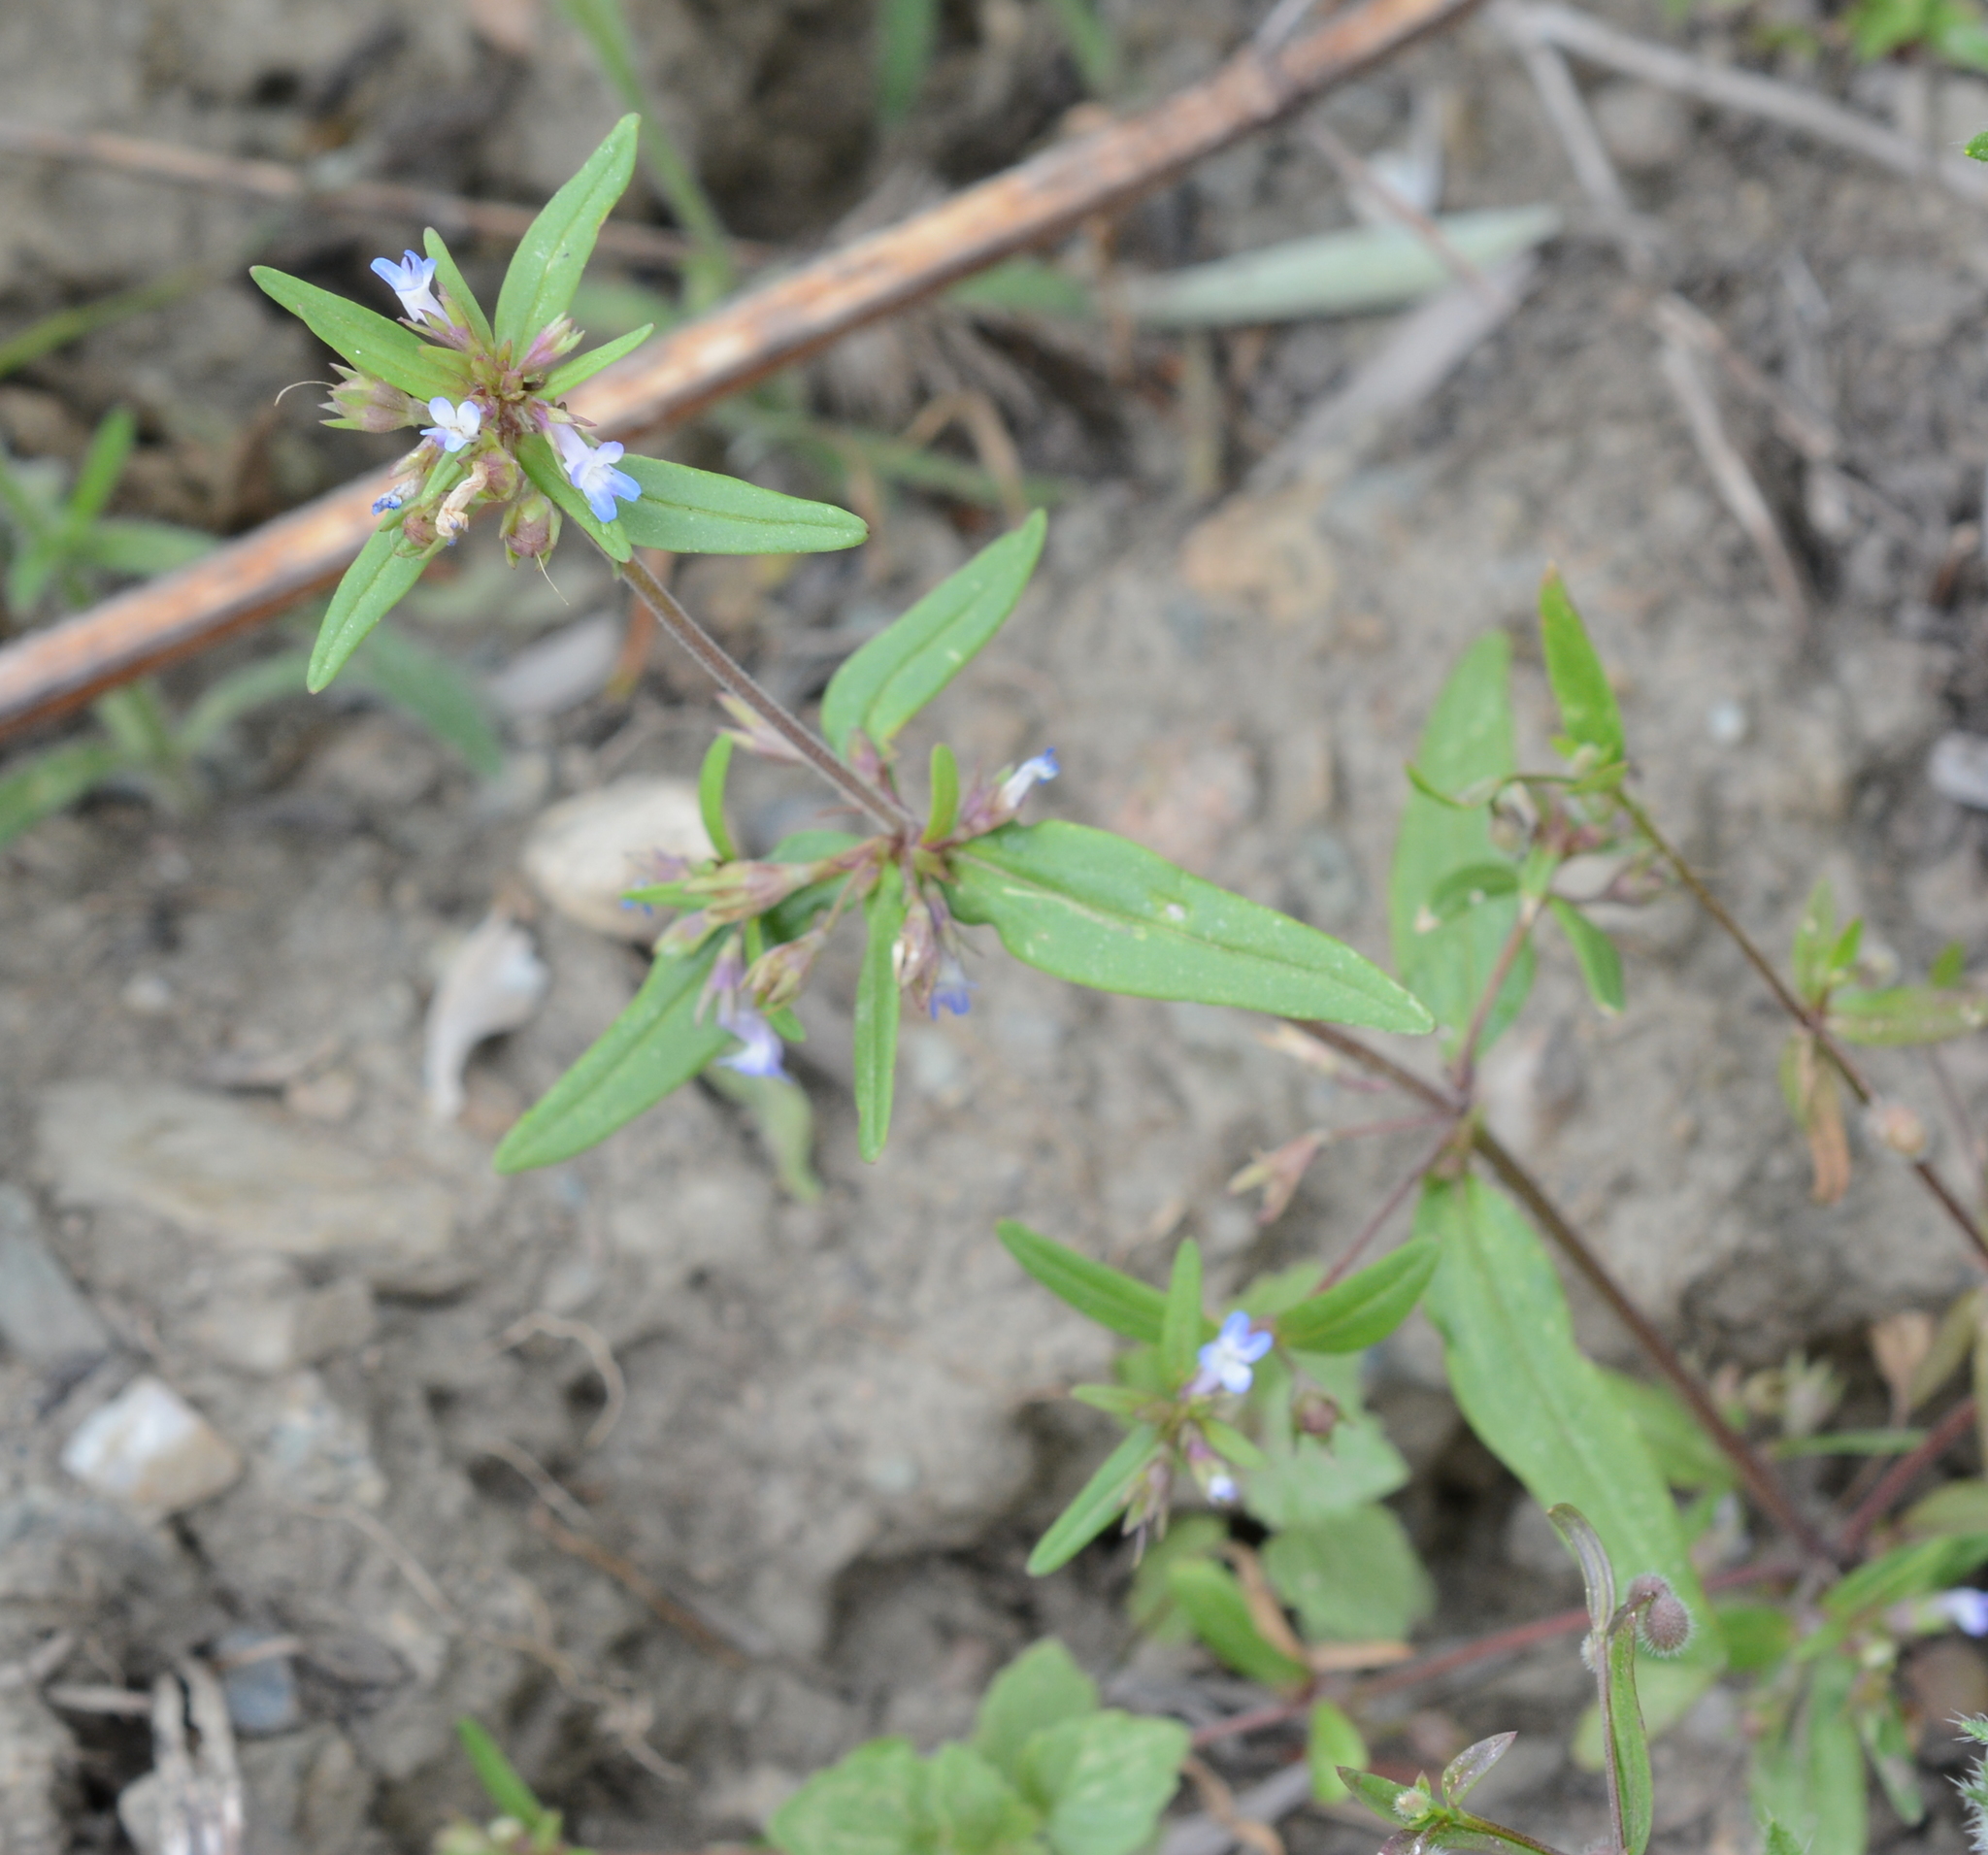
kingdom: Plantae
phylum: Tracheophyta
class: Magnoliopsida
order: Lamiales
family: Plantaginaceae
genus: Collinsia
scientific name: Collinsia parviflora
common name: Blue-lips
